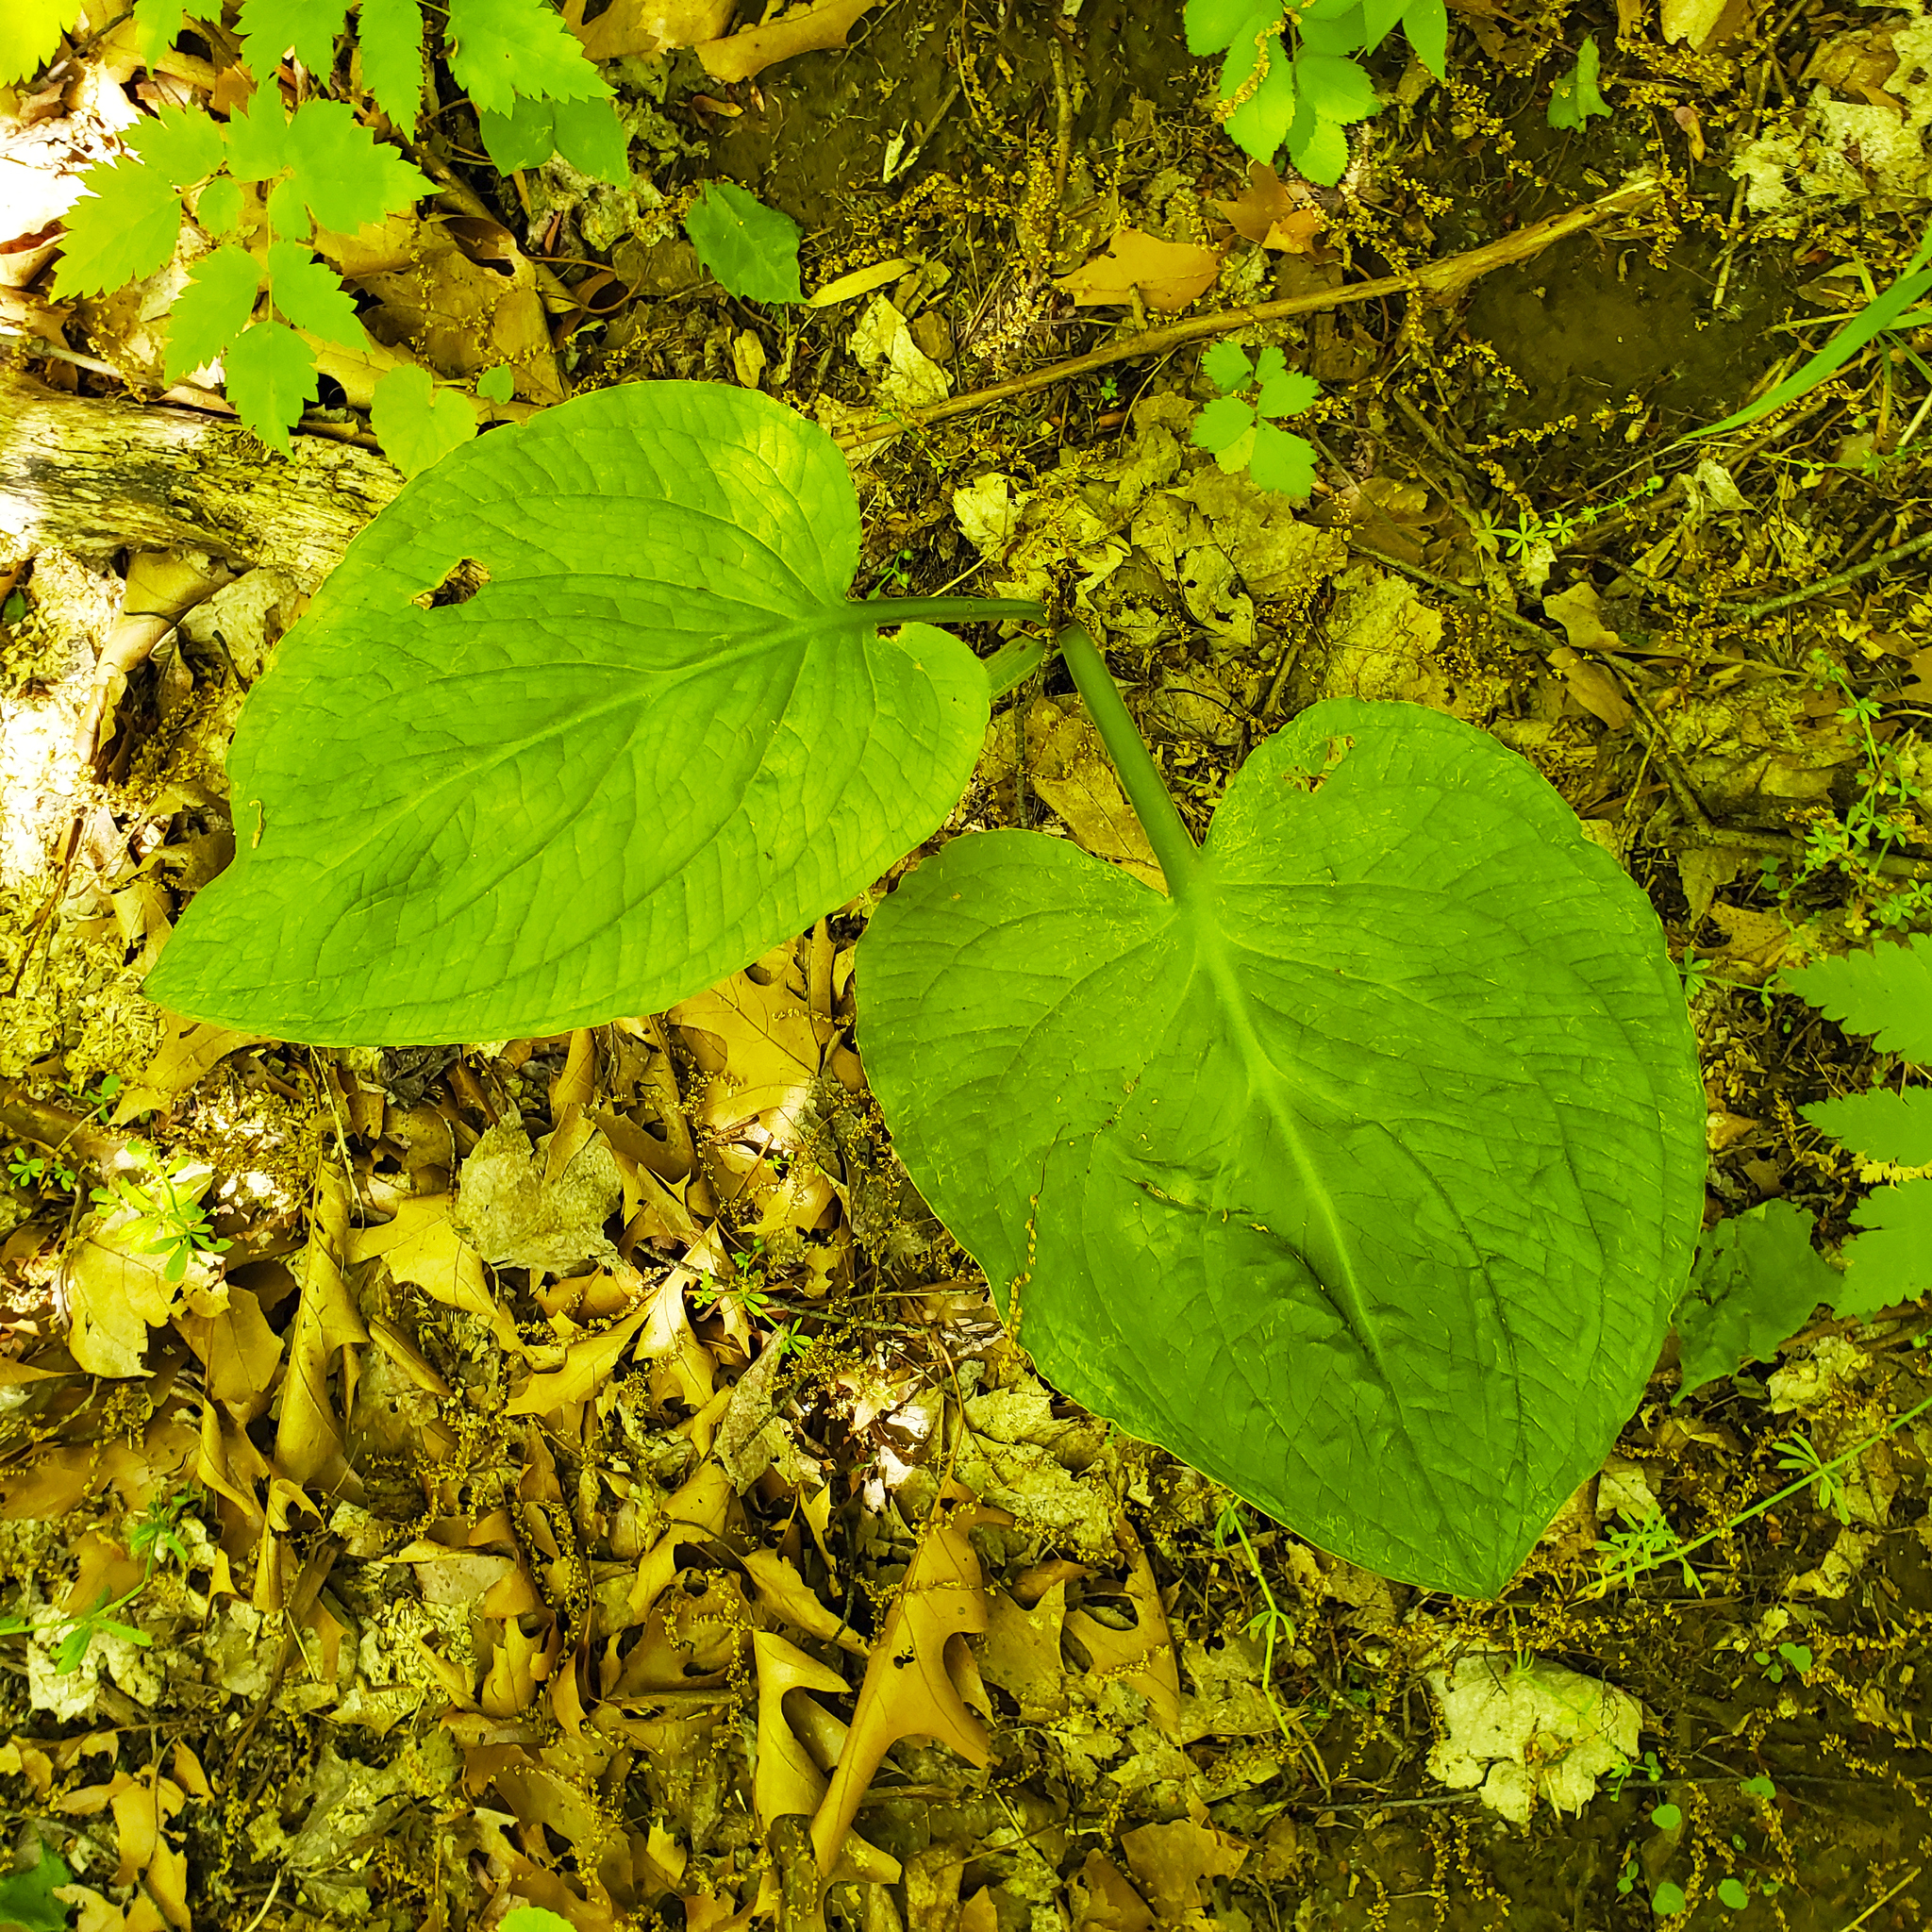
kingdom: Plantae
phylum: Tracheophyta
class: Liliopsida
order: Alismatales
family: Araceae
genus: Symplocarpus
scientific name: Symplocarpus foetidus
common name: Eastern skunk cabbage
